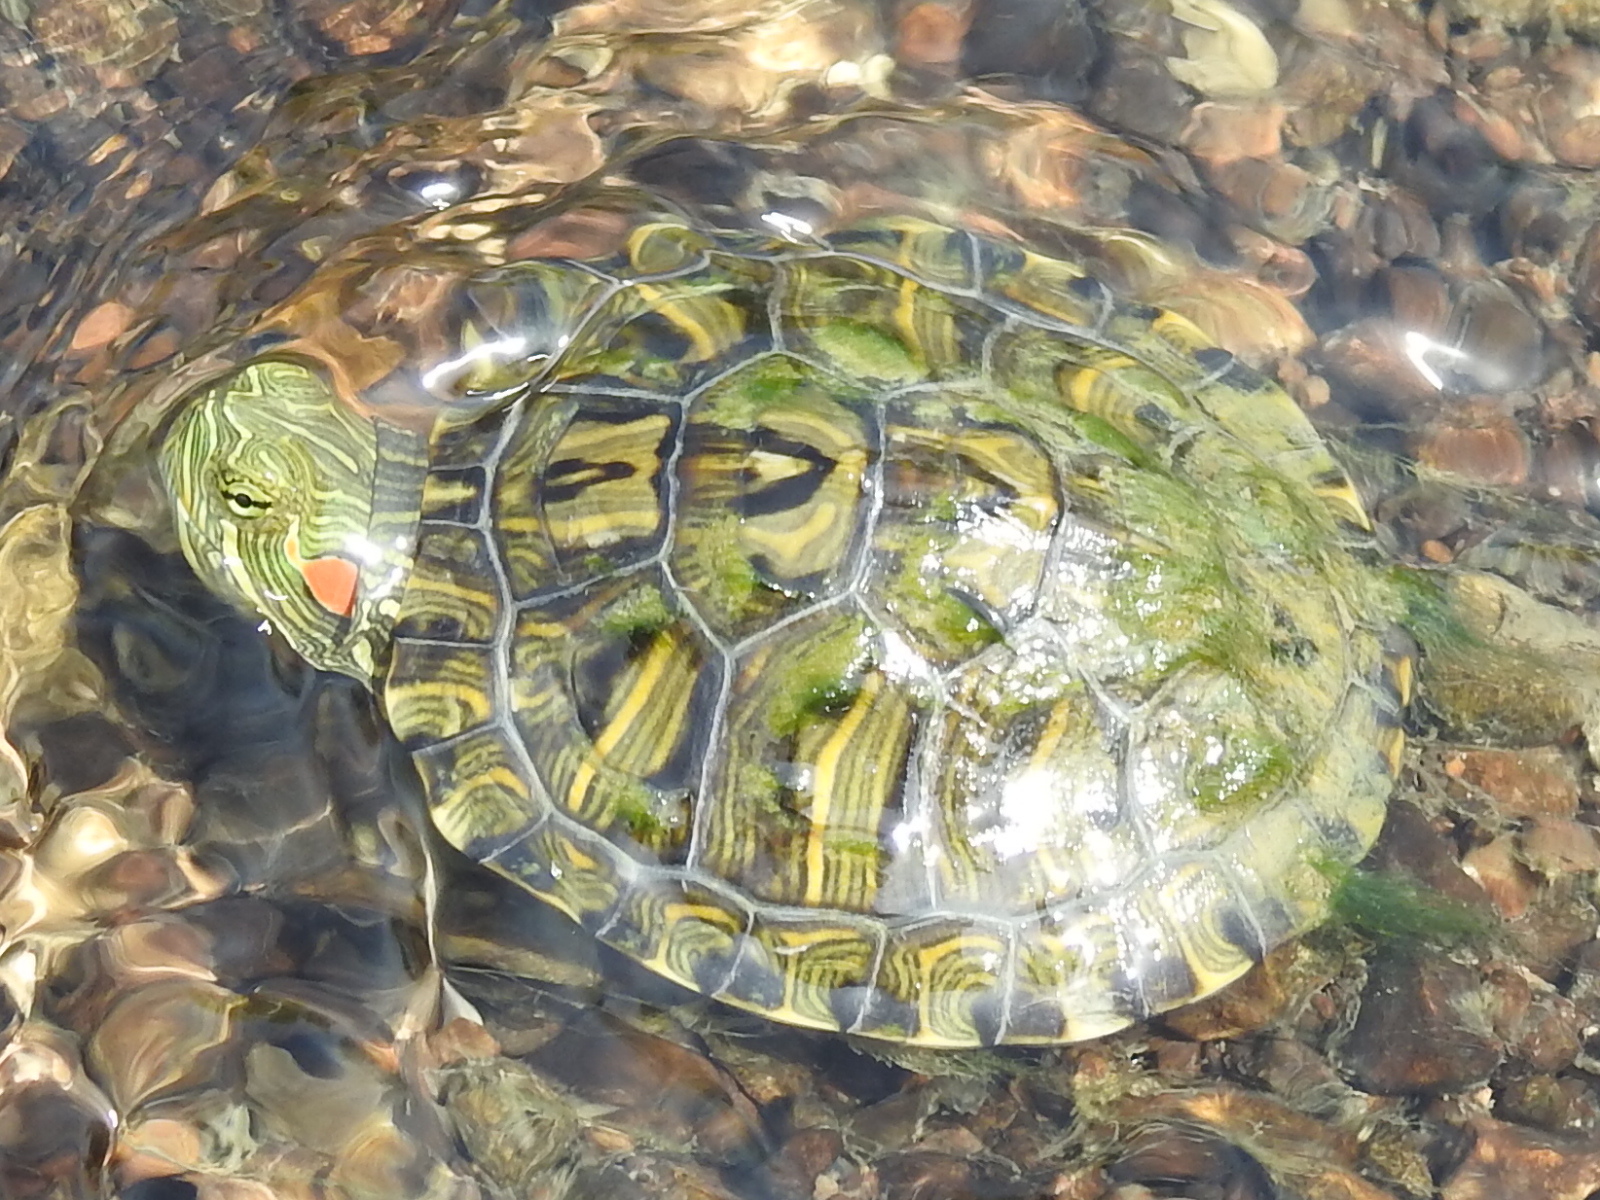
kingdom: Animalia
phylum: Chordata
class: Testudines
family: Emydidae
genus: Trachemys
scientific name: Trachemys scripta
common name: Slider
